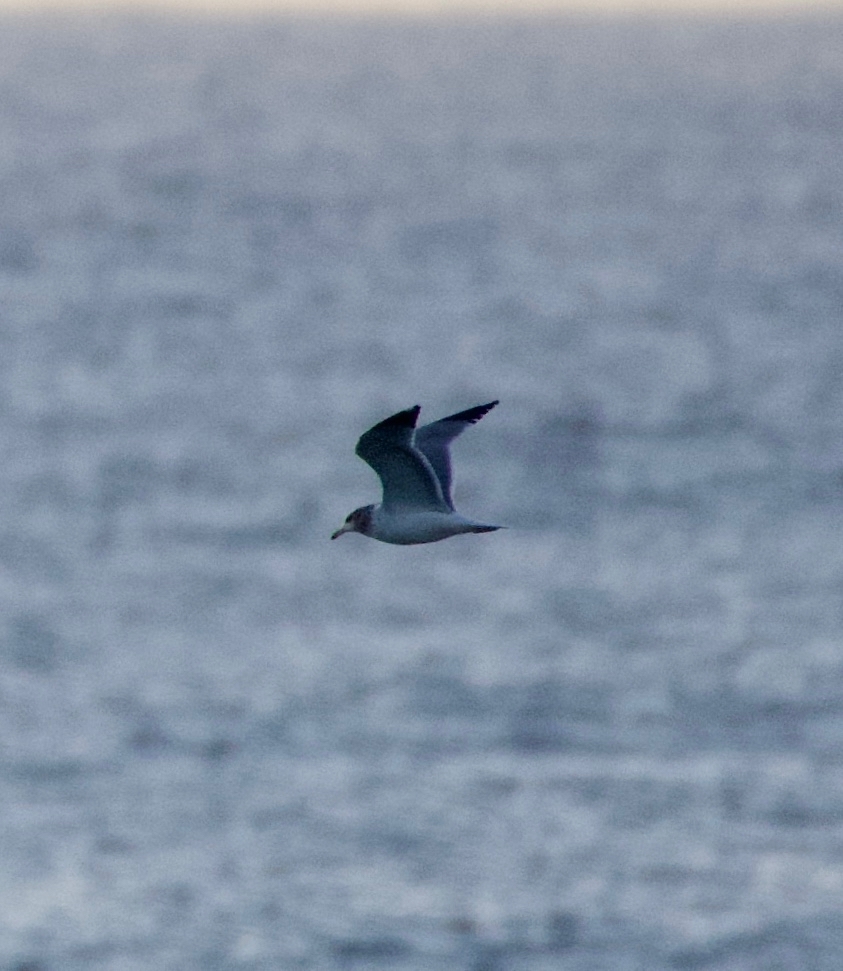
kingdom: Animalia
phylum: Chordata
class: Aves
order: Charadriiformes
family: Laridae
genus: Larus
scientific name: Larus californicus
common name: California gull
